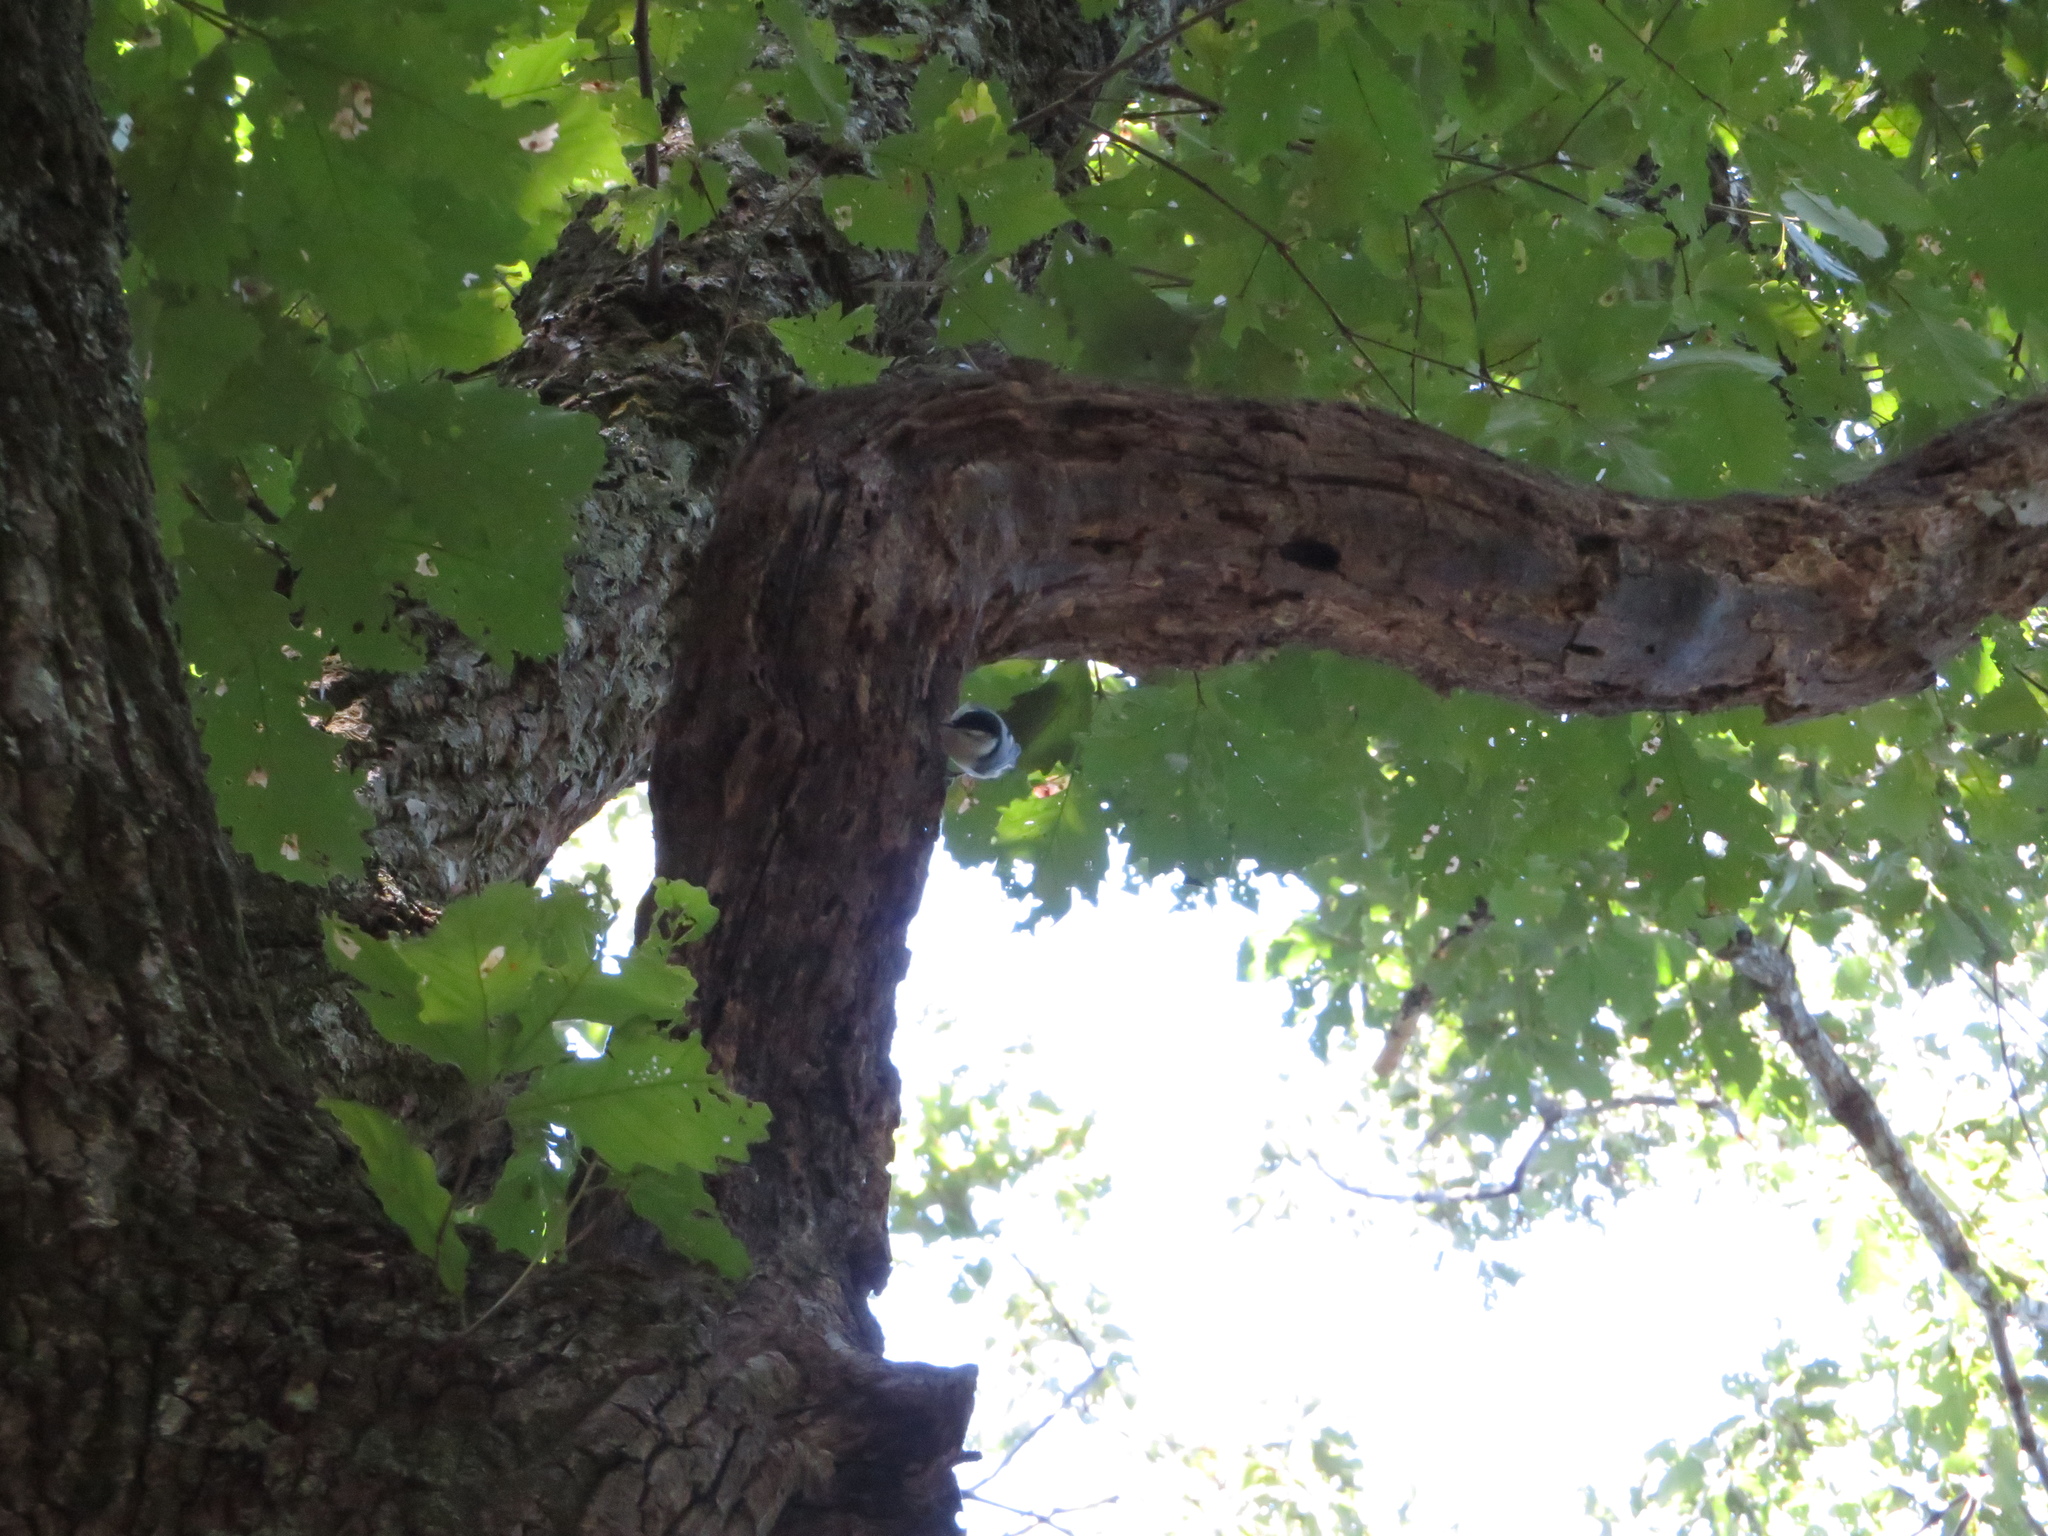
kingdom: Animalia
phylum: Chordata
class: Aves
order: Passeriformes
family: Sittidae
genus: Sitta
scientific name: Sitta carolinensis
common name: White-breasted nuthatch
